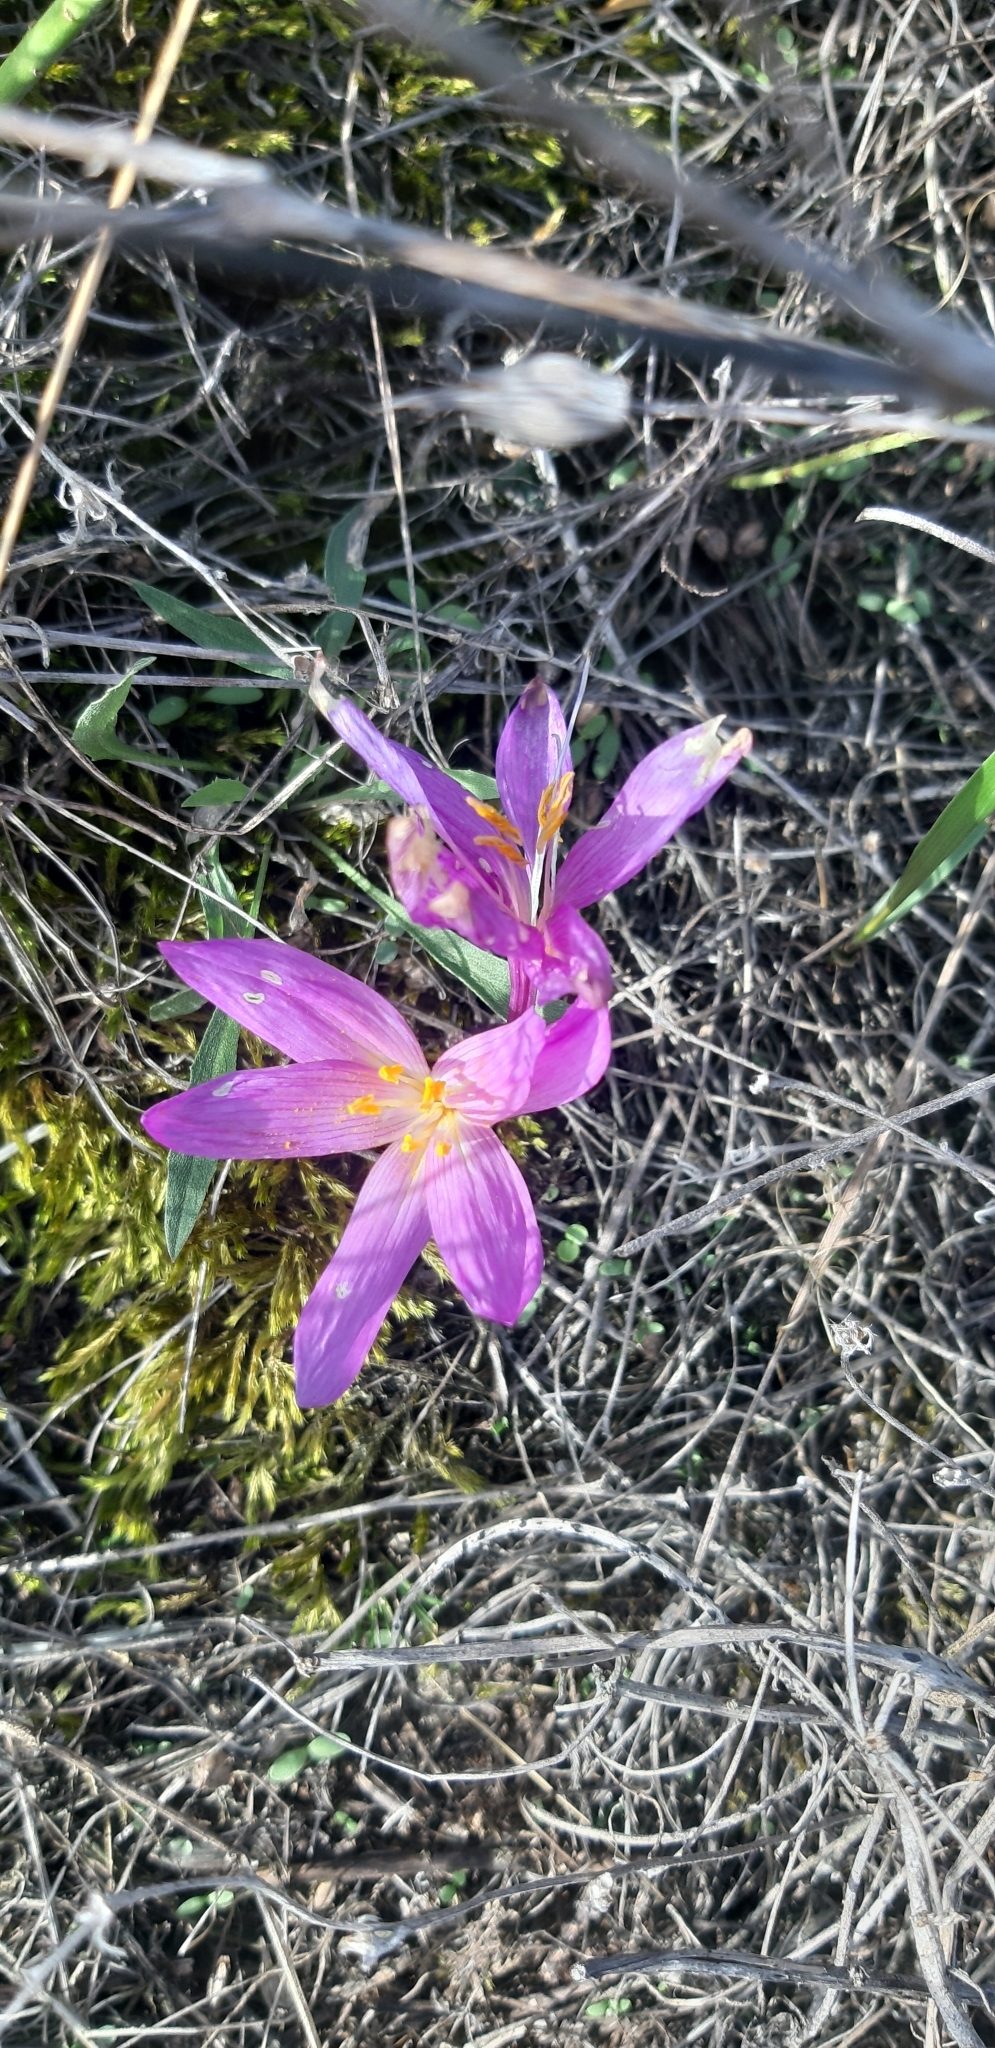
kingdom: Plantae
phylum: Tracheophyta
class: Liliopsida
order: Liliales
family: Colchicaceae
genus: Colchicum
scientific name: Colchicum arenarium
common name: Sand saffron
